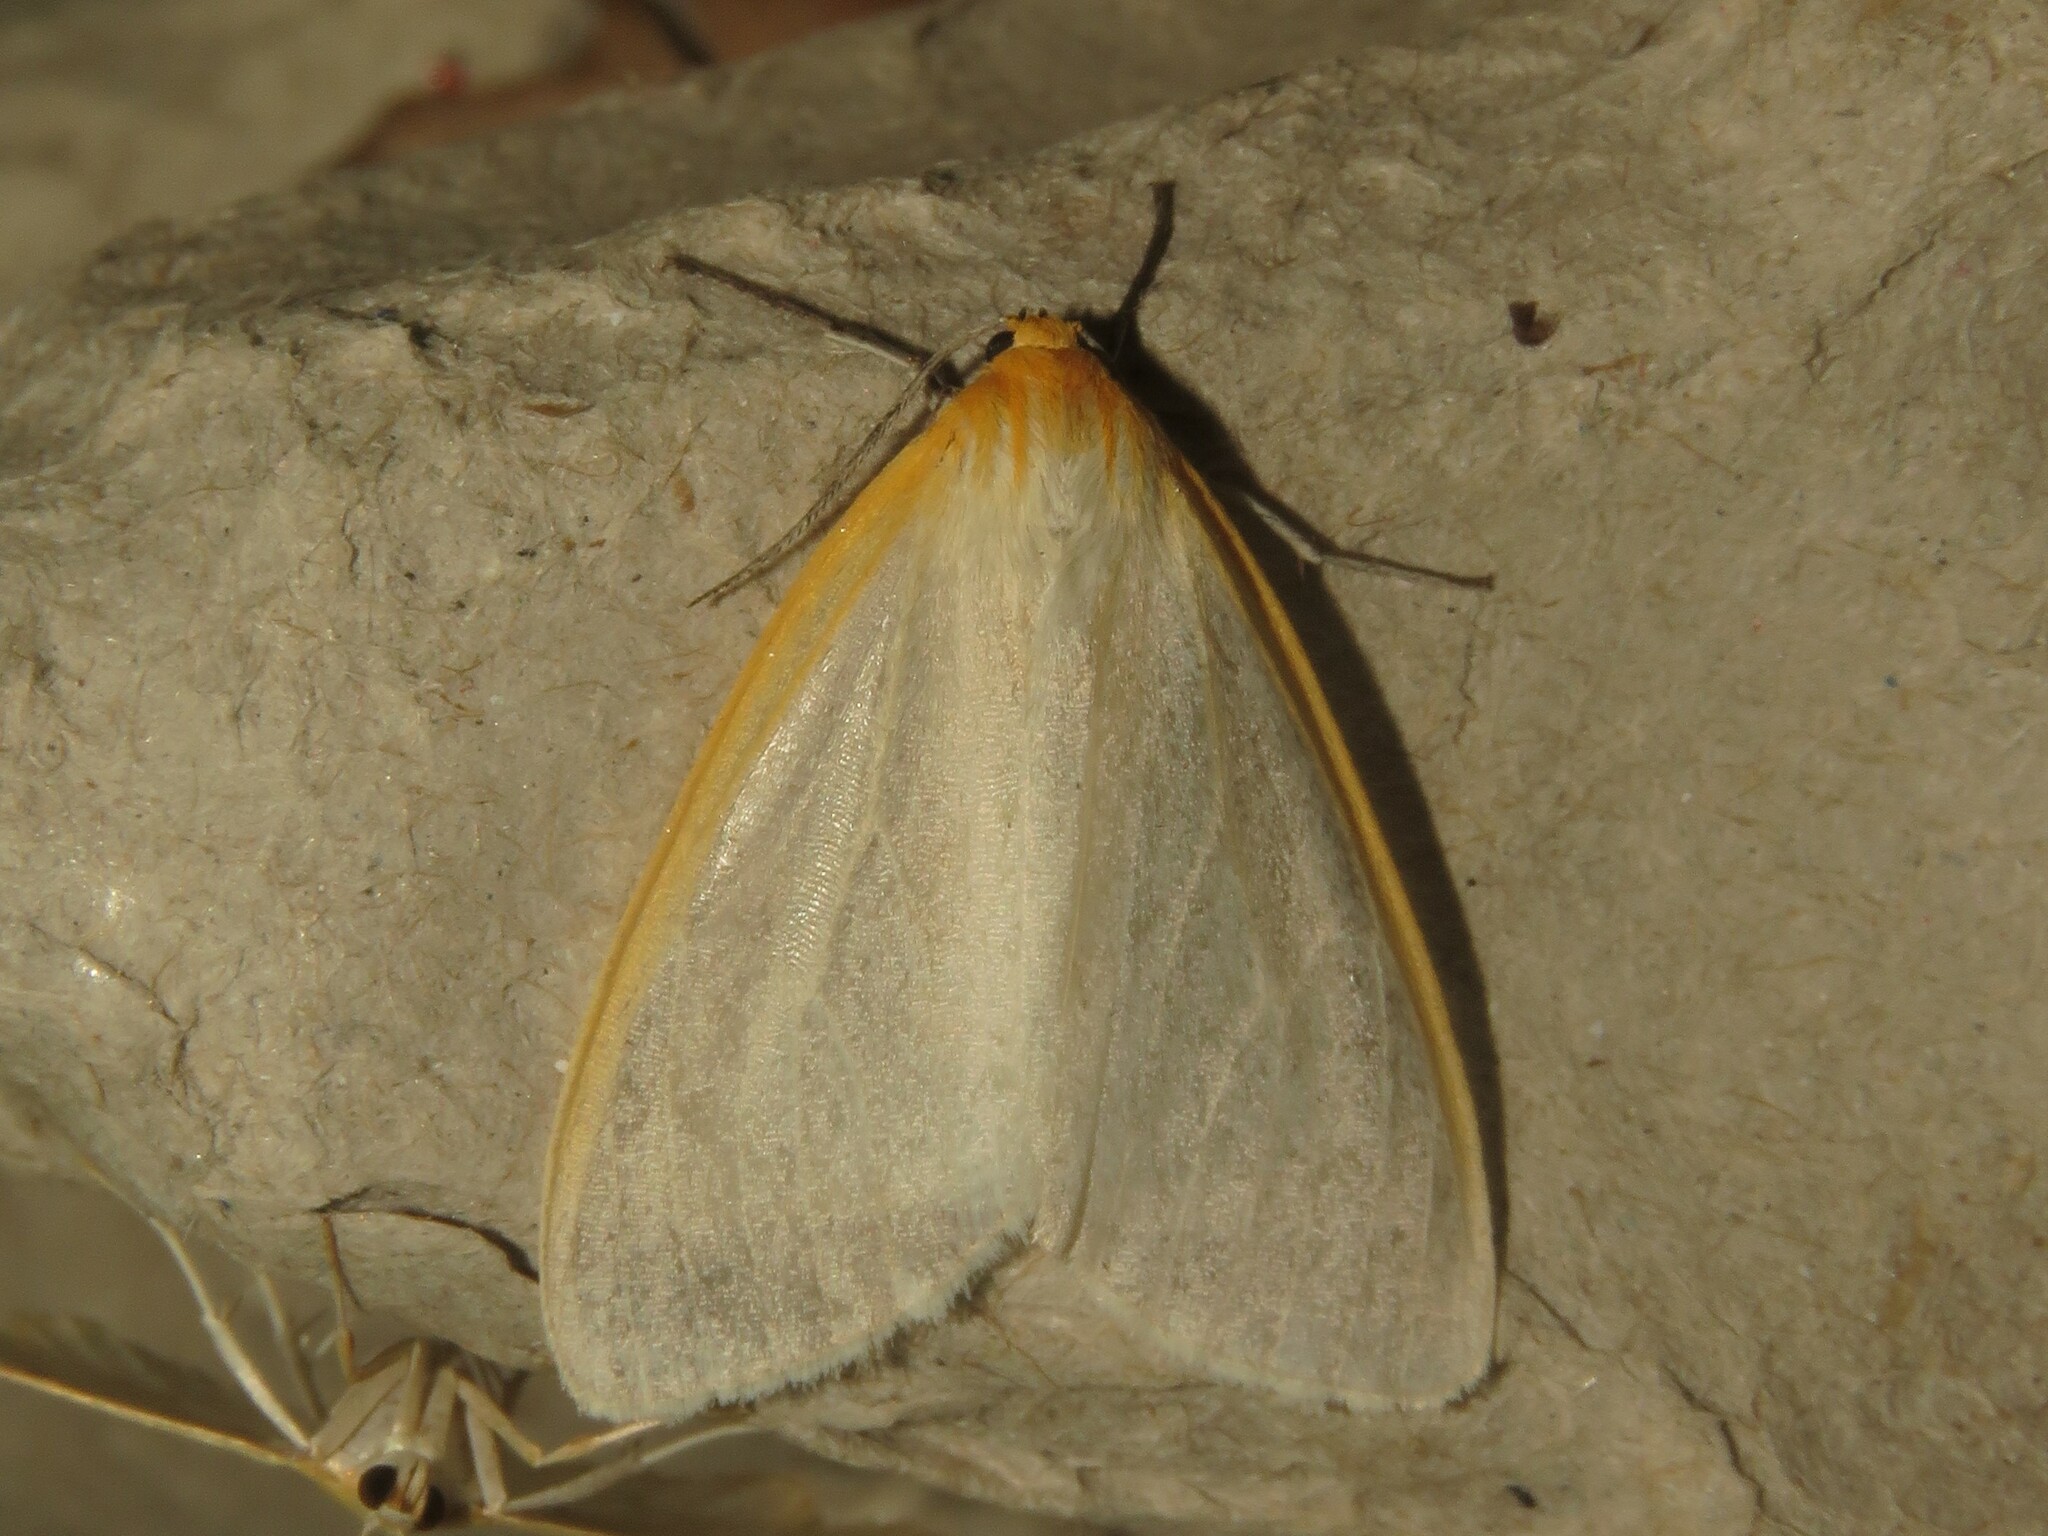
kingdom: Animalia
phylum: Arthropoda
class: Insecta
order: Lepidoptera
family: Erebidae
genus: Cycnia
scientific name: Cycnia tenera
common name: Delicate cycnia moth
